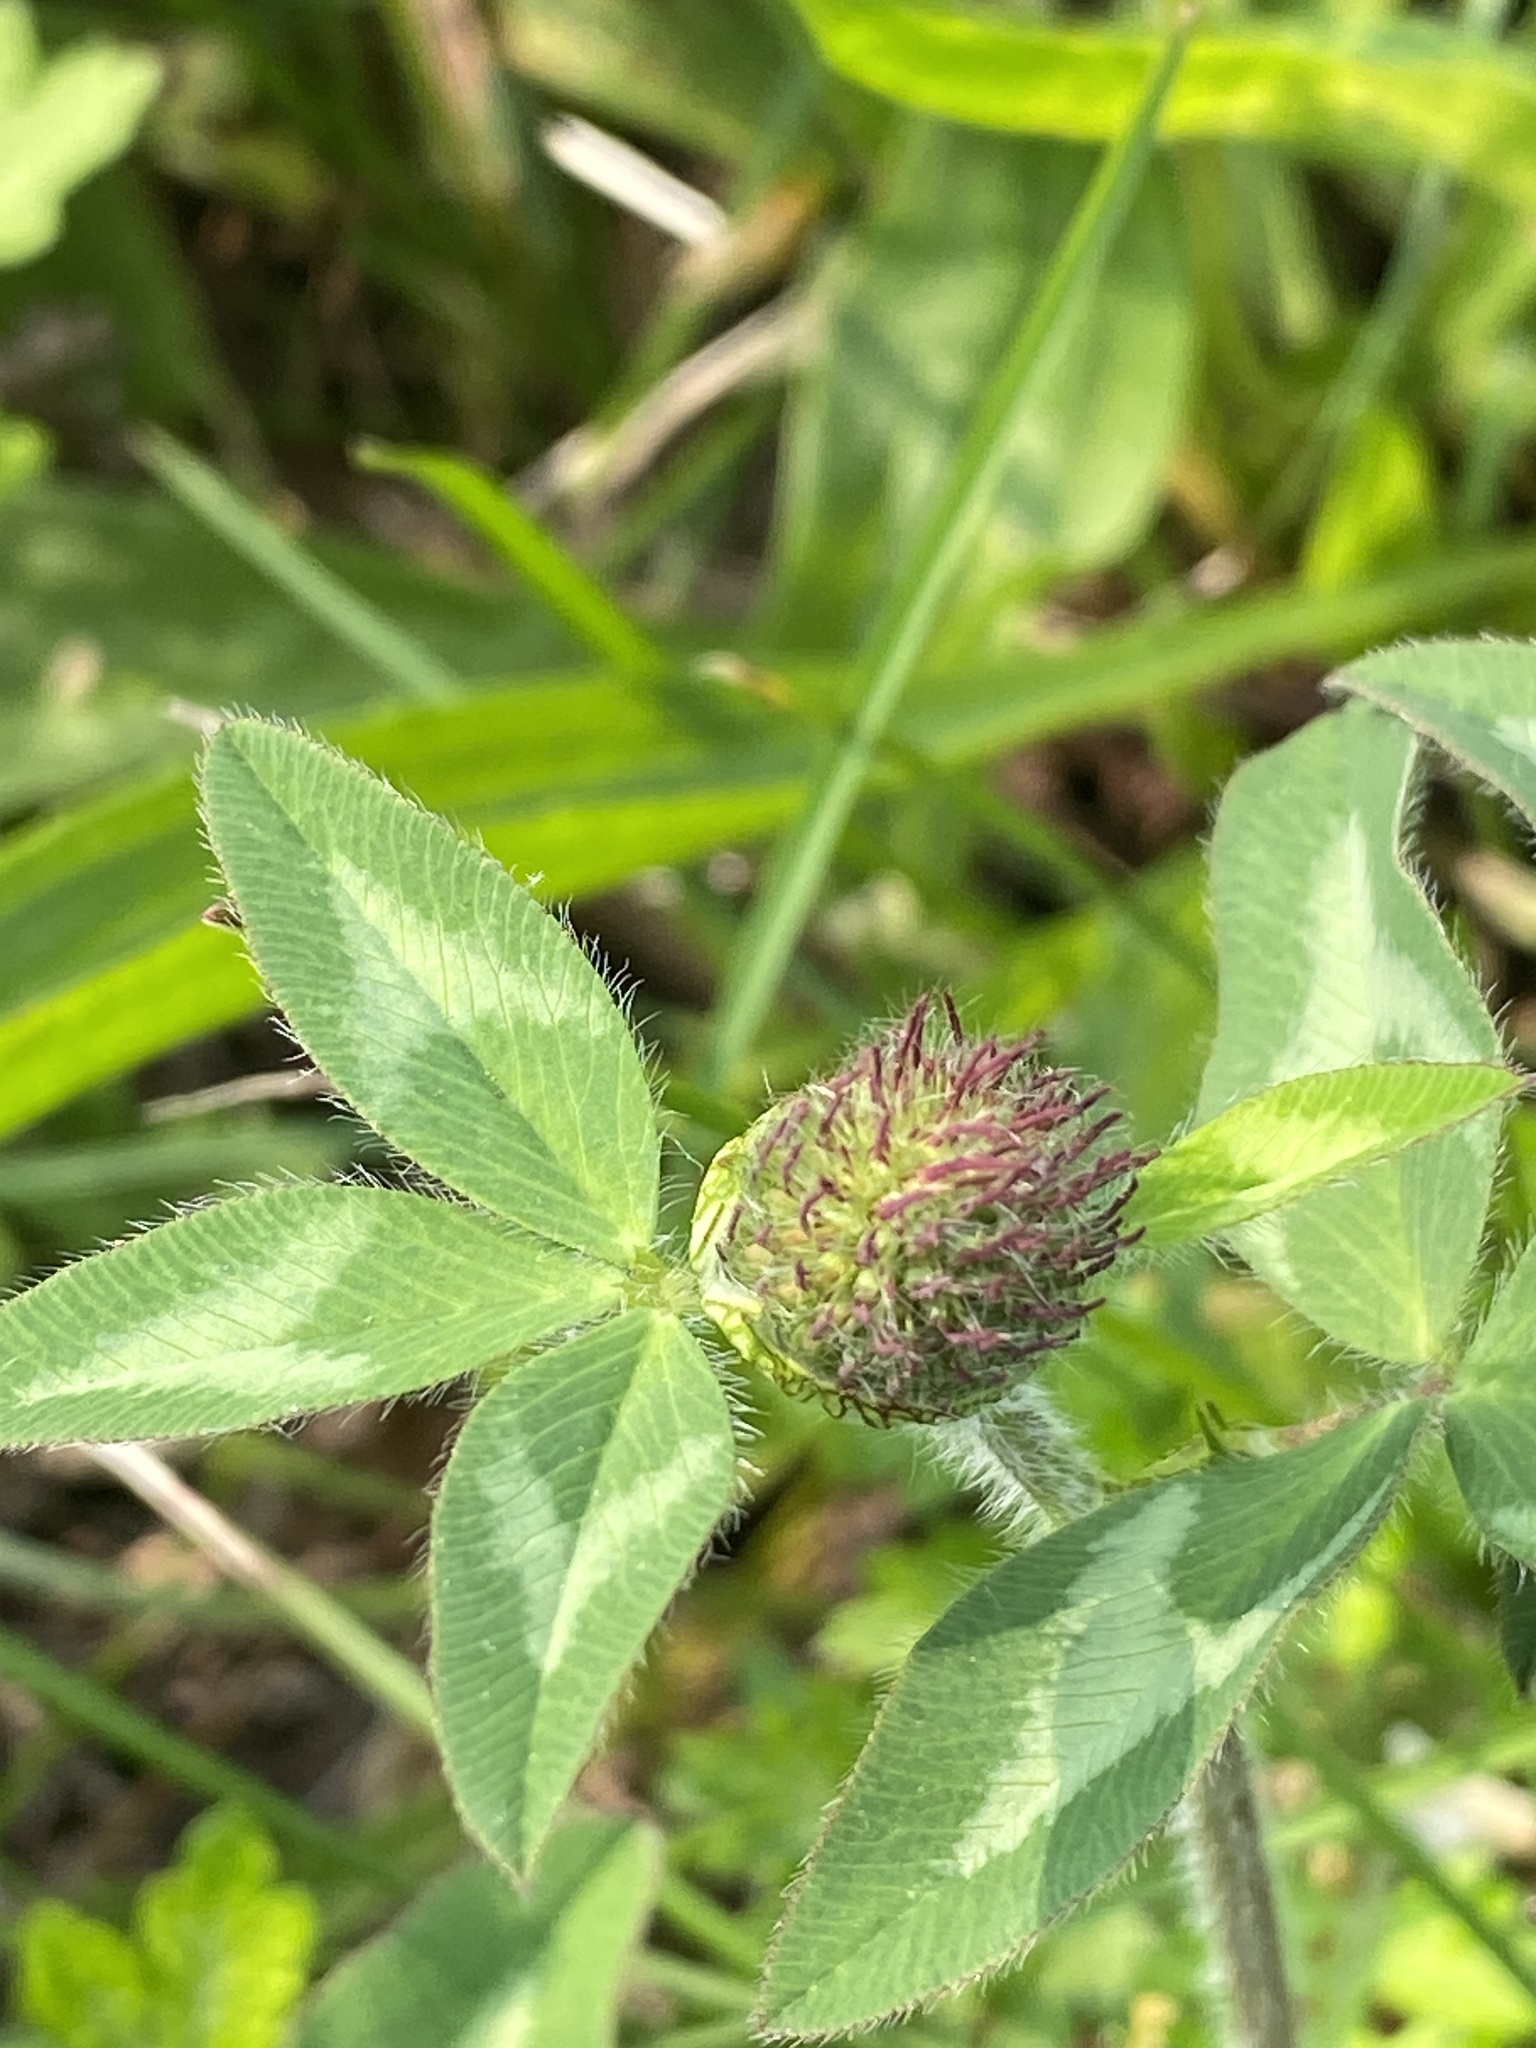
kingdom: Plantae
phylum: Tracheophyta
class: Magnoliopsida
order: Fabales
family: Fabaceae
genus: Trifolium
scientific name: Trifolium pratense
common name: Red clover
